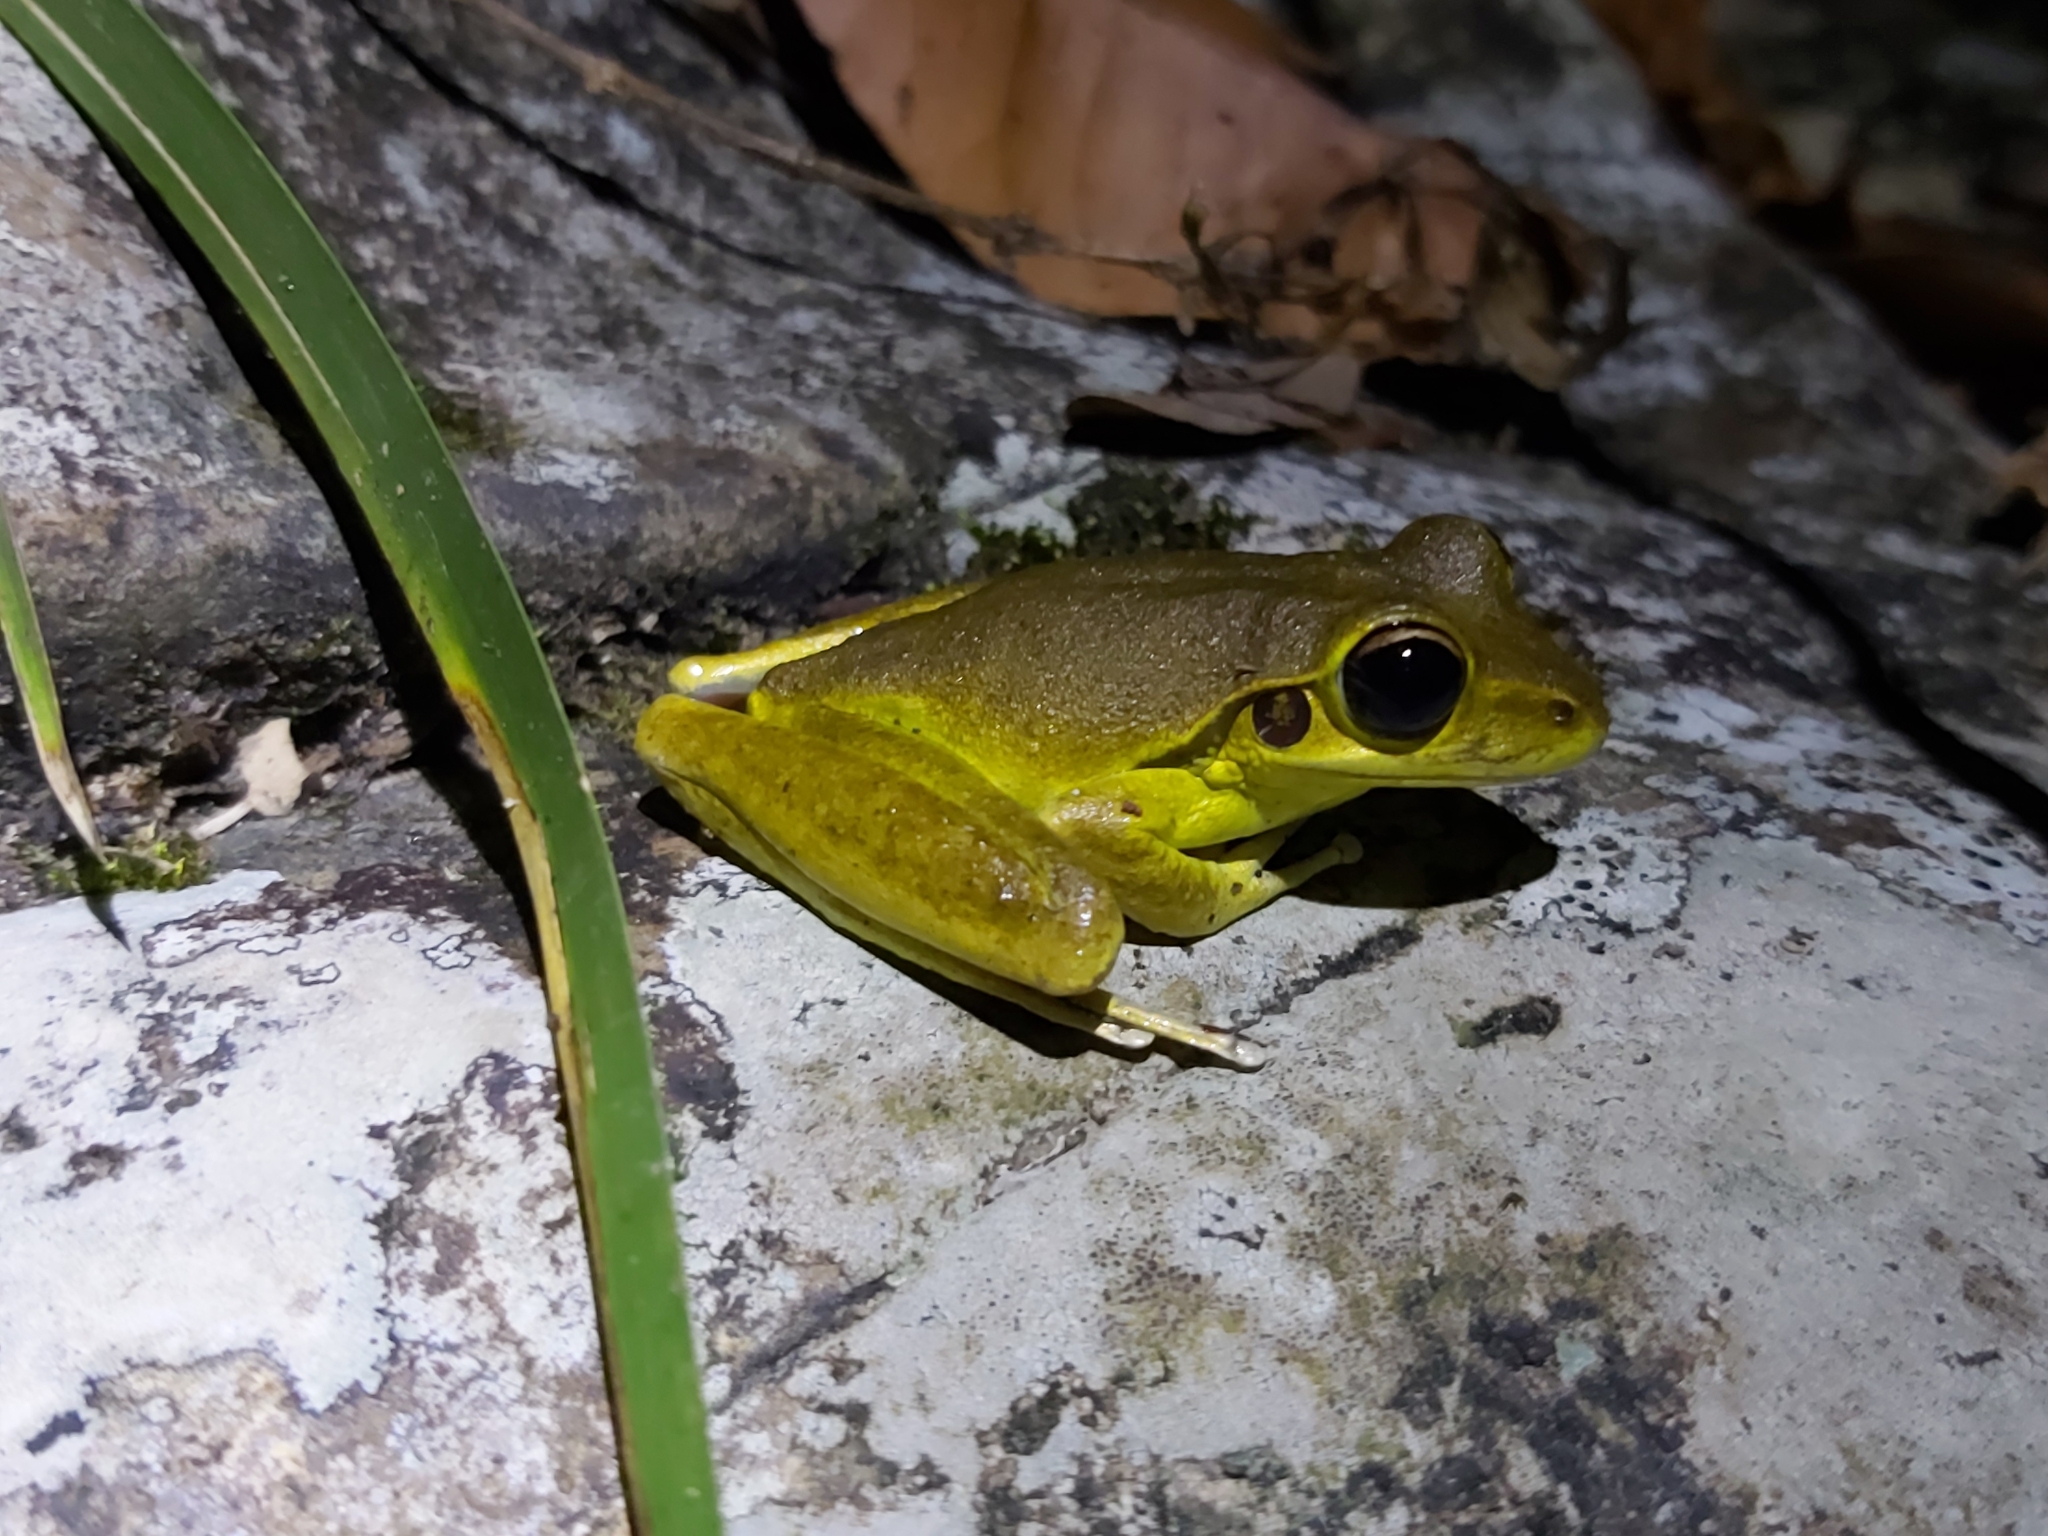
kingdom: Animalia
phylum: Chordata
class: Amphibia
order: Anura
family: Hylidae
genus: Ranoidea
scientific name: Ranoidea
